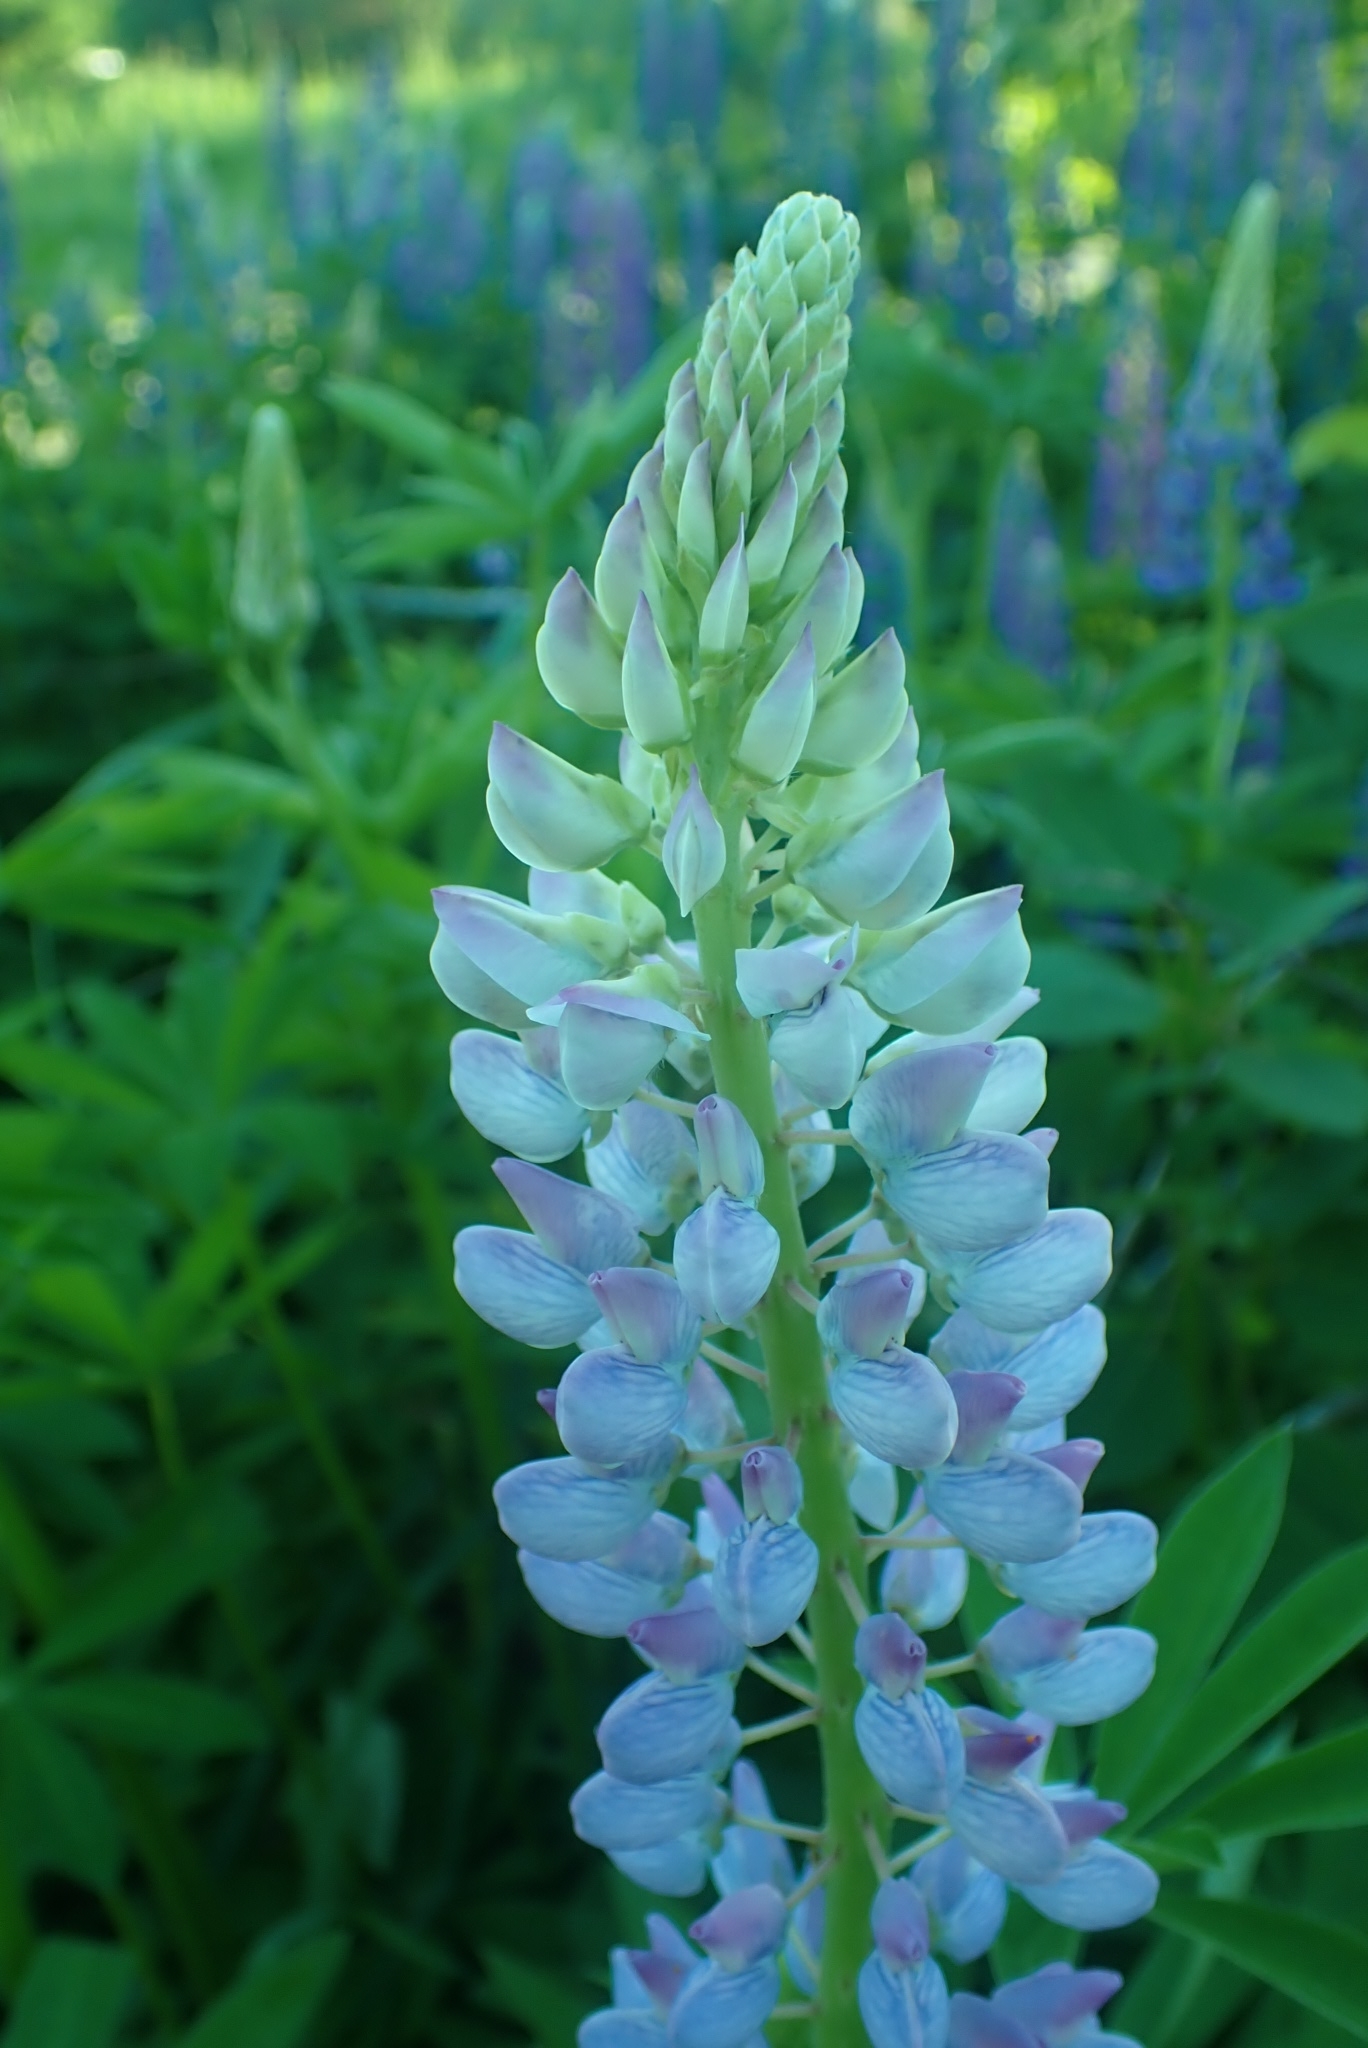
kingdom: Plantae
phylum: Tracheophyta
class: Magnoliopsida
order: Fabales
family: Fabaceae
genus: Lupinus
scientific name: Lupinus polyphyllus
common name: Garden lupin
